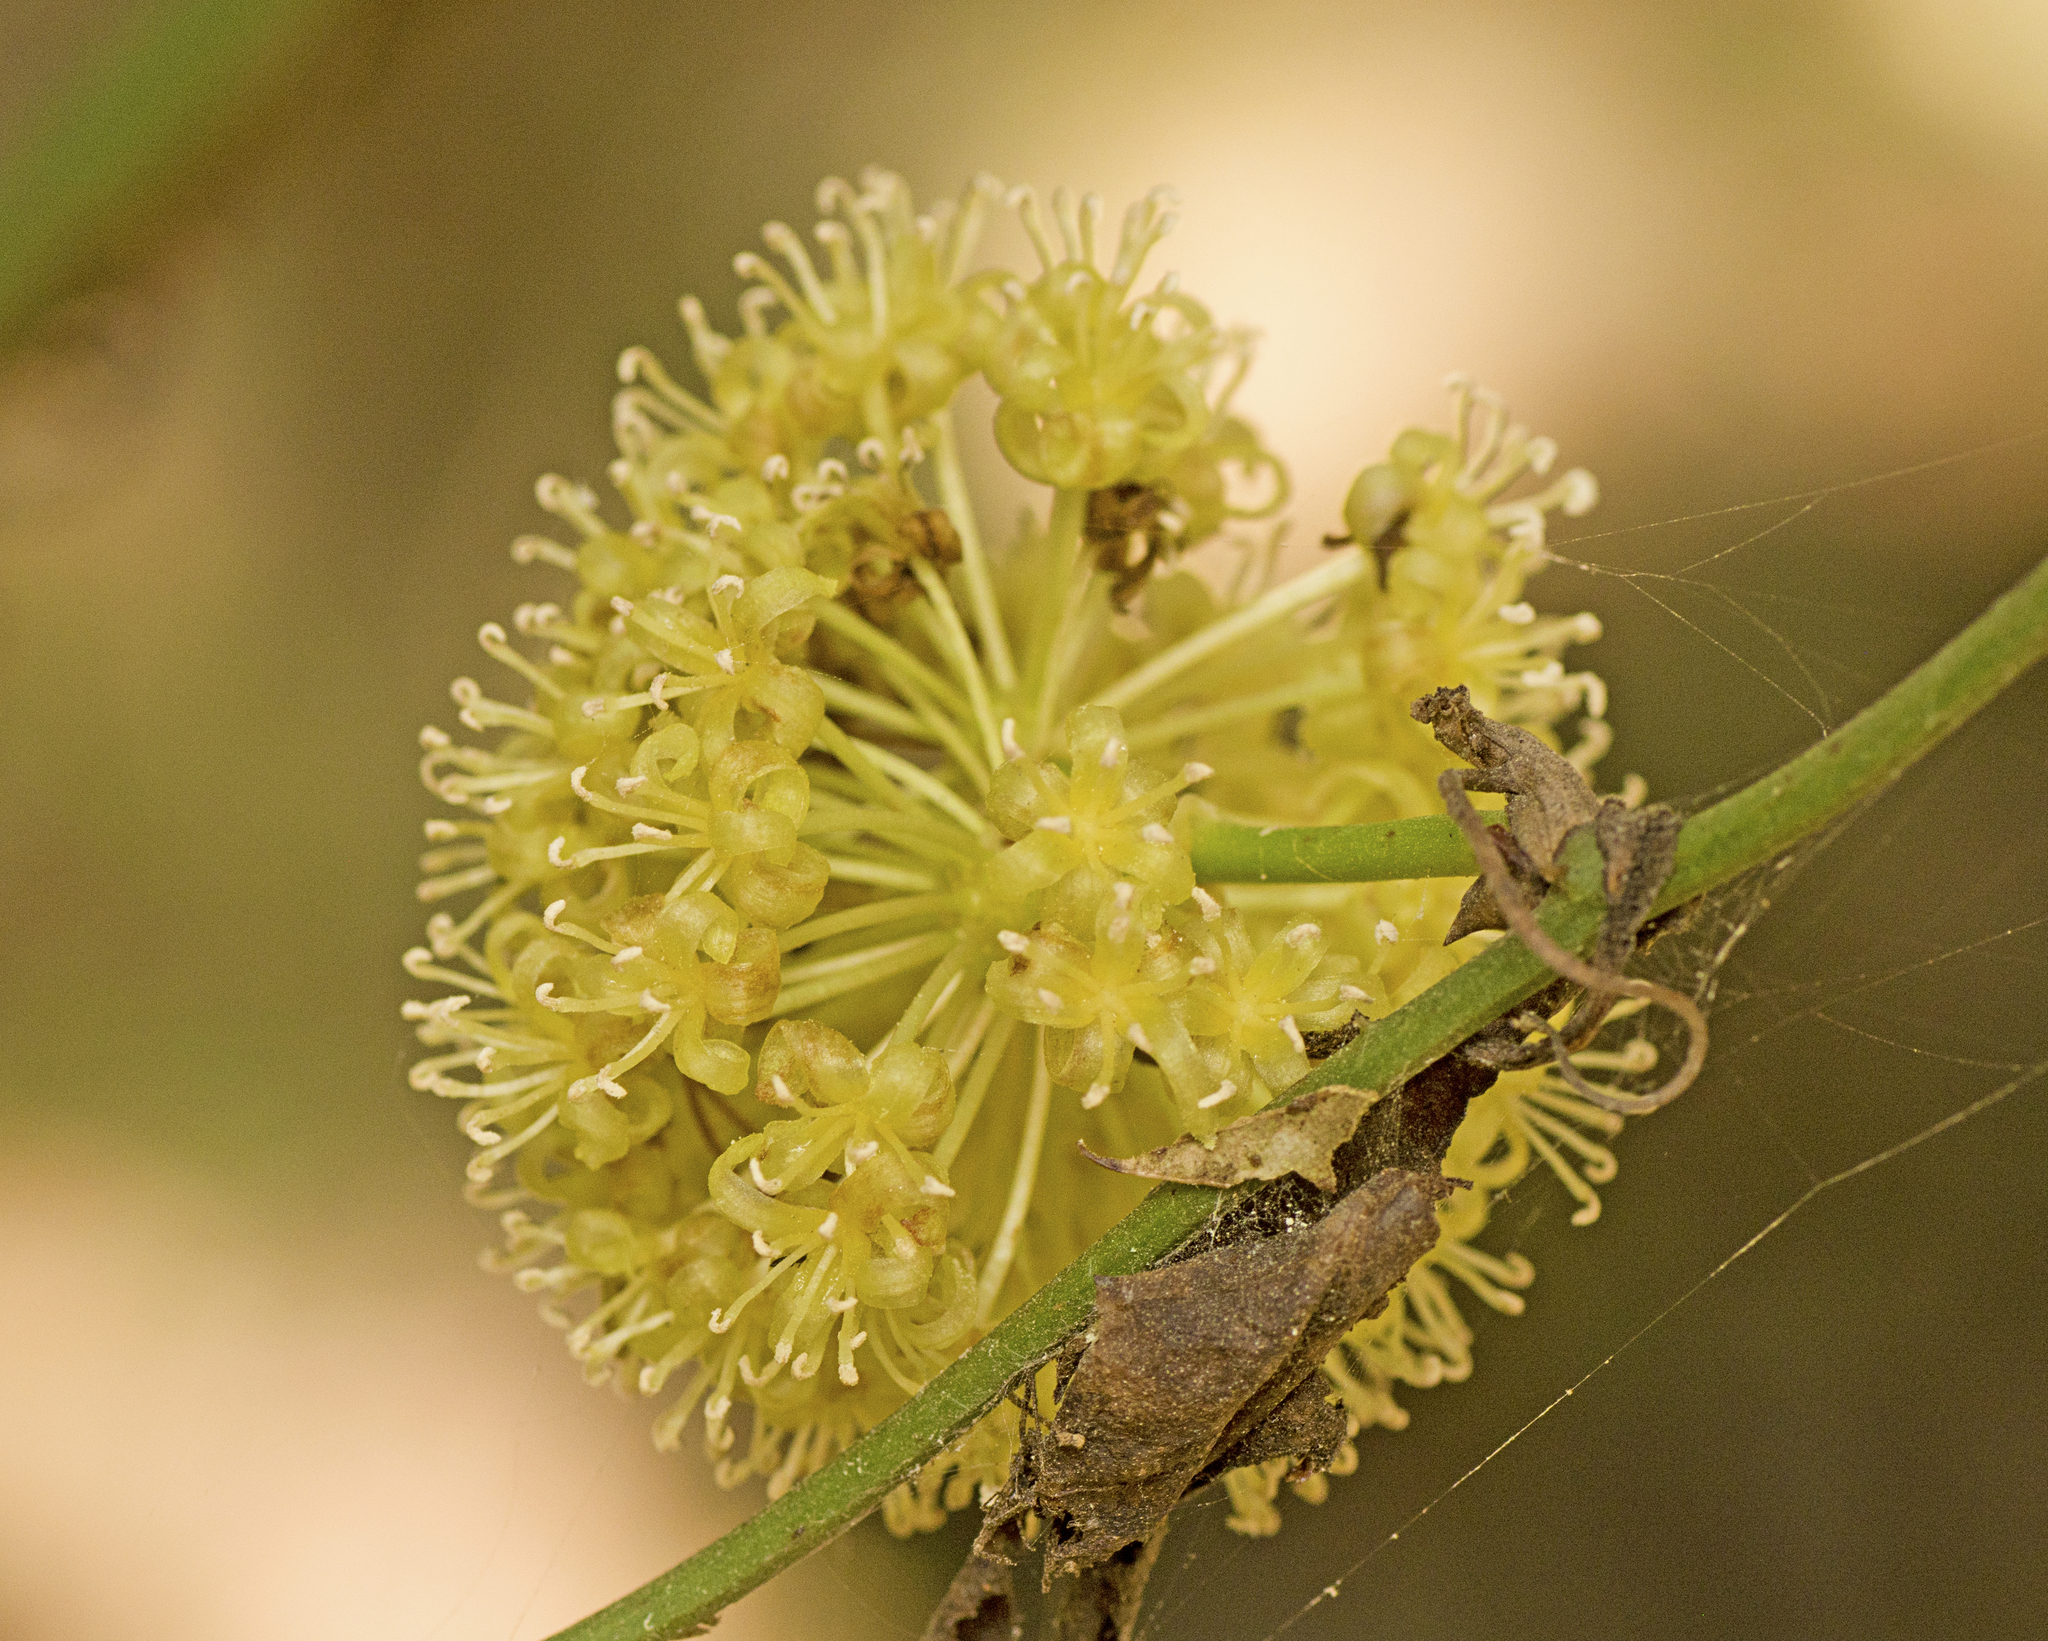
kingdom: Plantae
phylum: Tracheophyta
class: Liliopsida
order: Liliales
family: Smilacaceae
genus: Smilax
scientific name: Smilax australis
